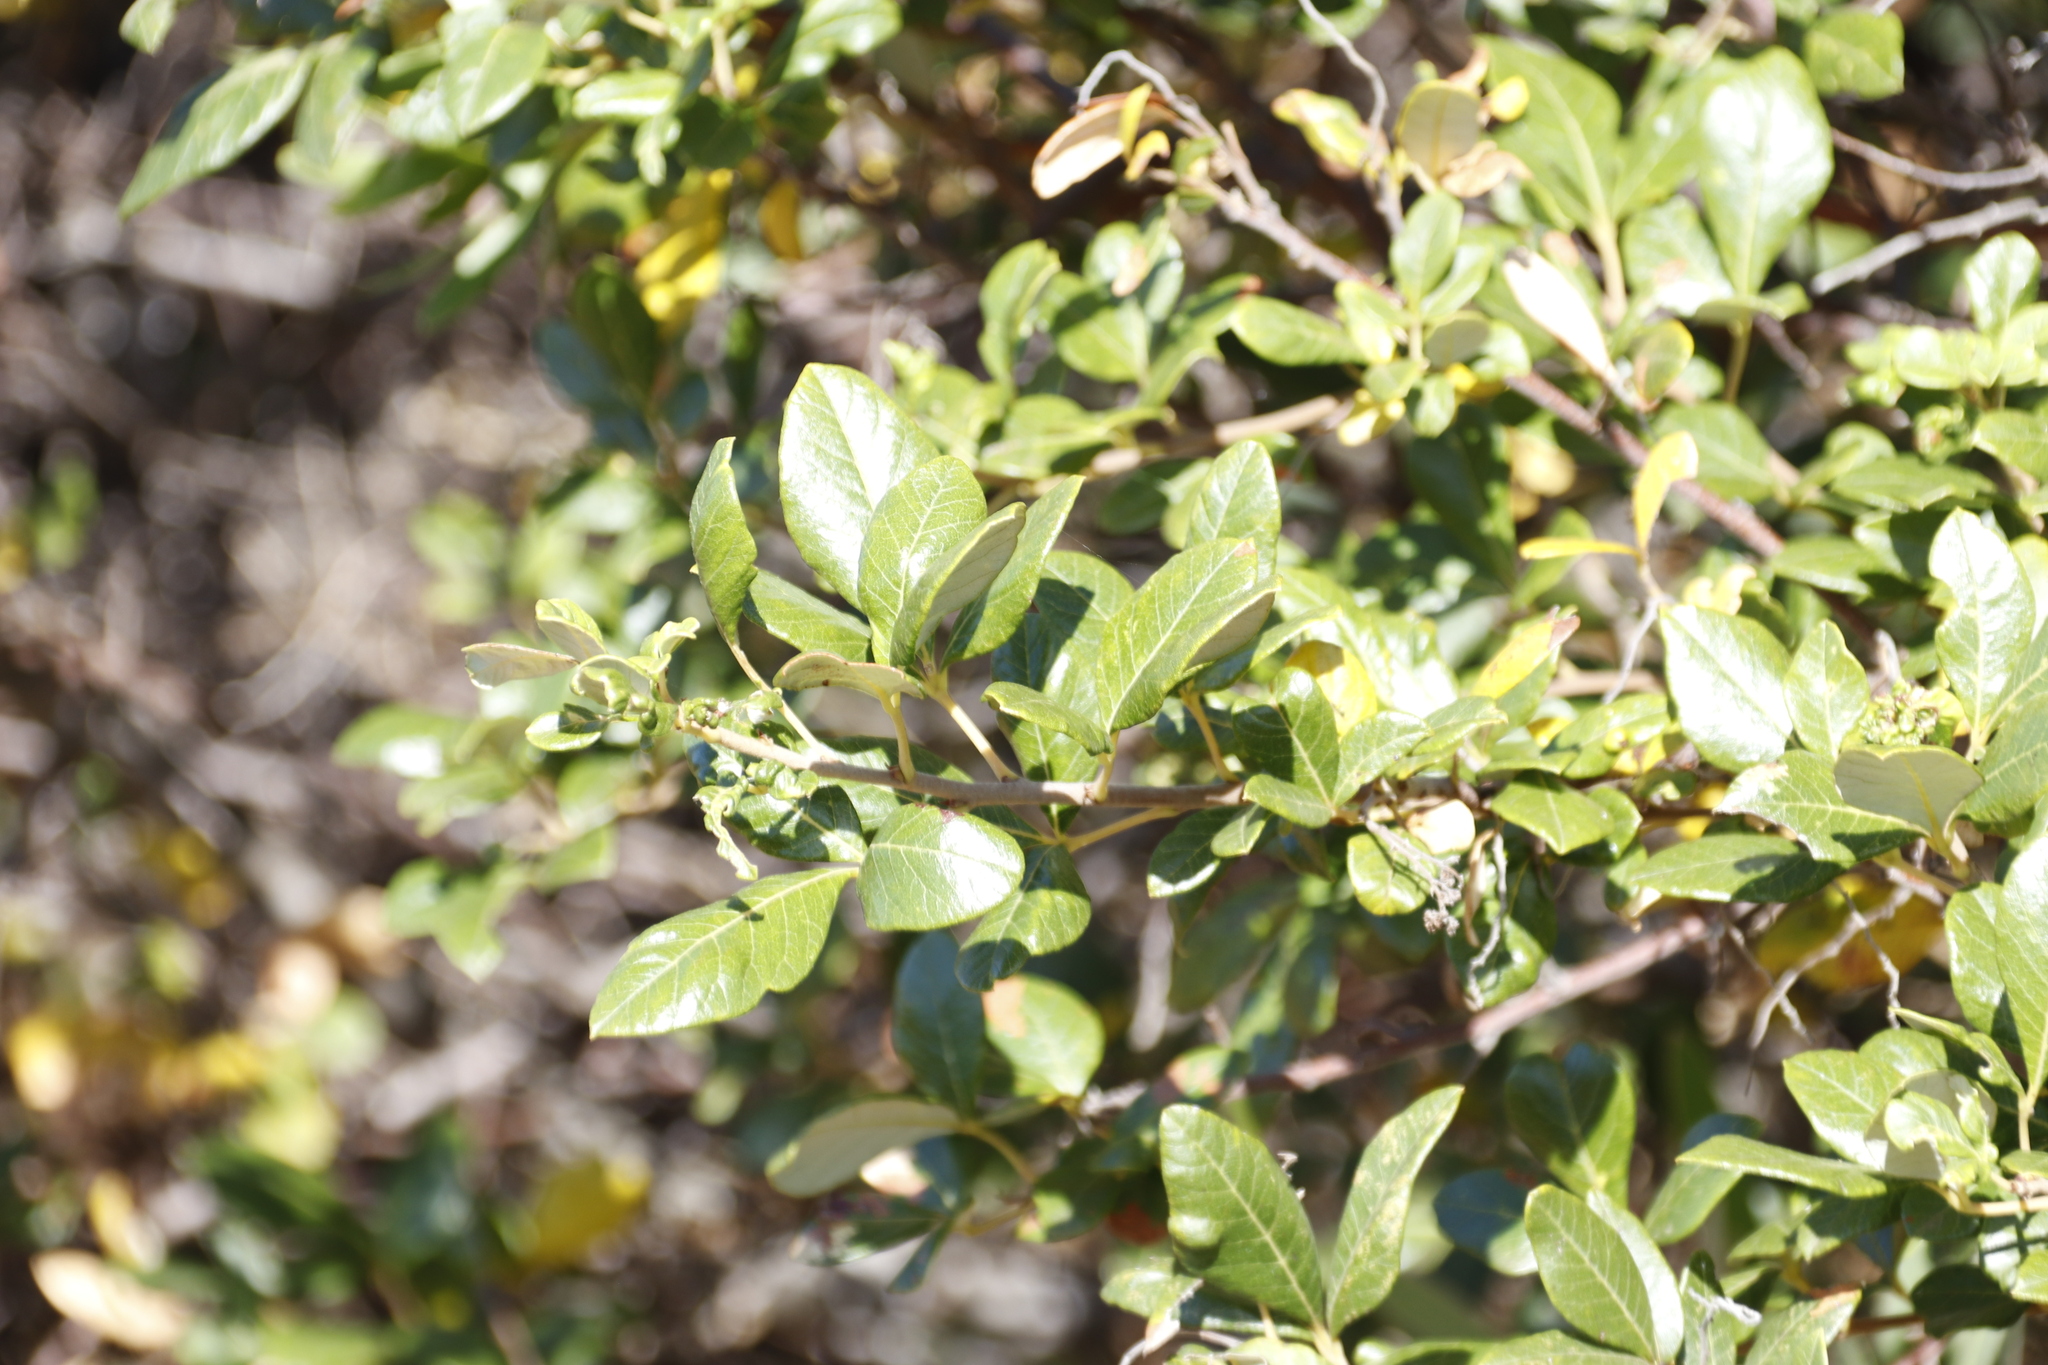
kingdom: Plantae
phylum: Tracheophyta
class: Magnoliopsida
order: Sapindales
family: Anacardiaceae
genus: Searsia
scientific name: Searsia tomentosa
